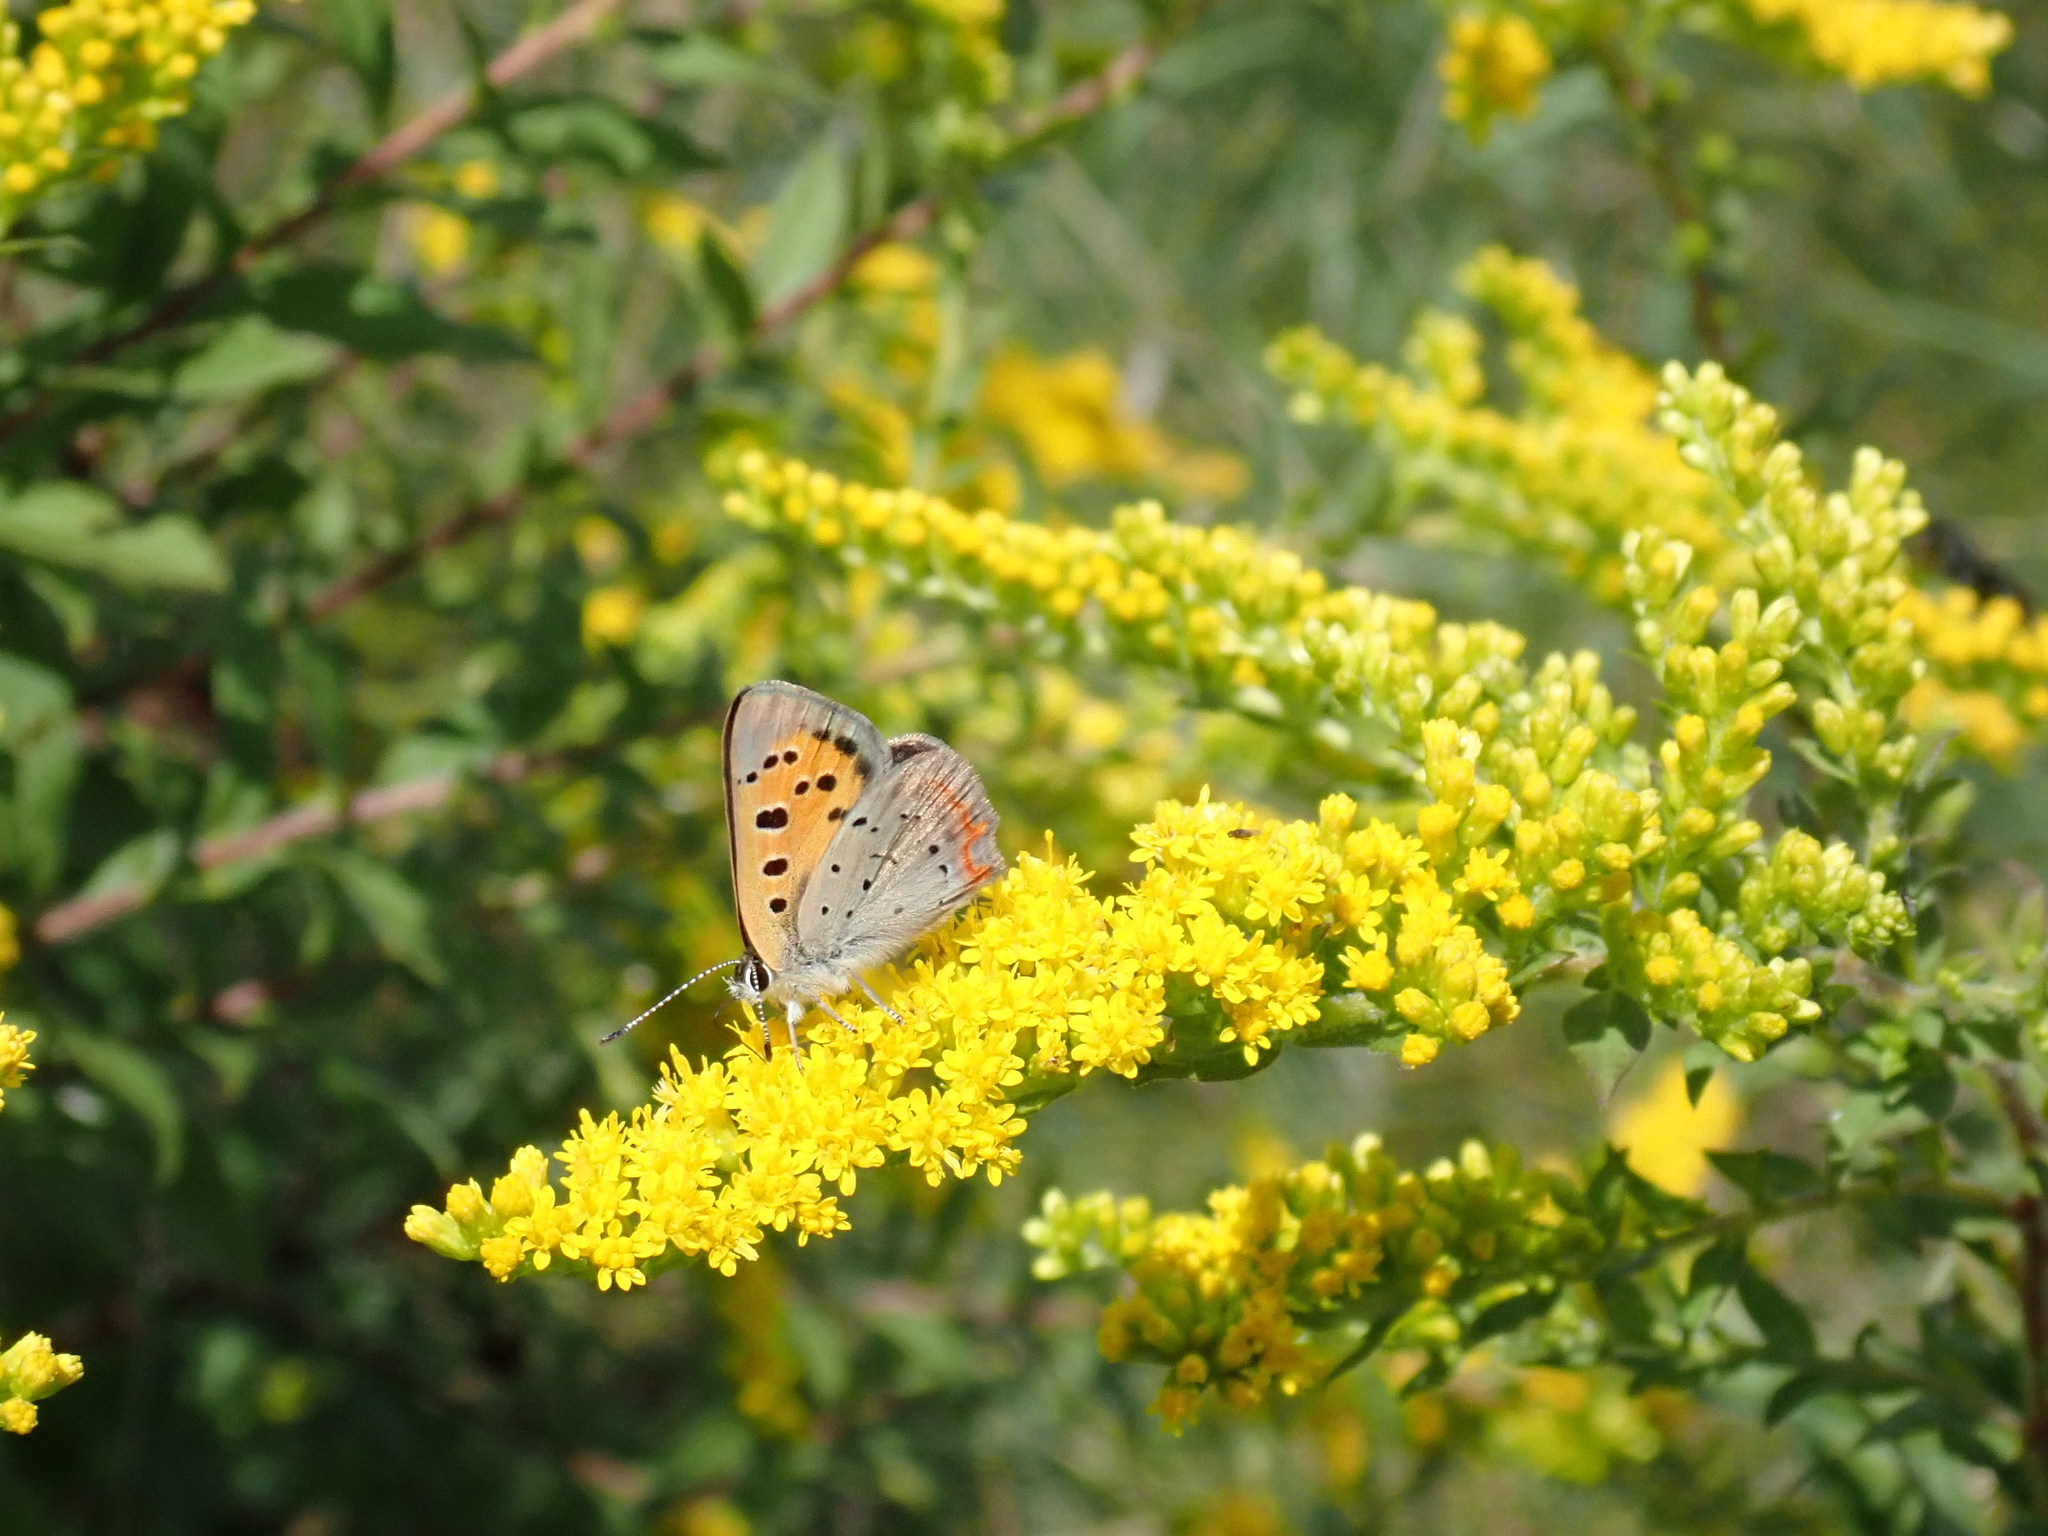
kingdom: Animalia
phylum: Arthropoda
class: Insecta
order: Lepidoptera
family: Lycaenidae
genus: Lycaena
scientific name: Lycaena hypophlaeas
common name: American copper
